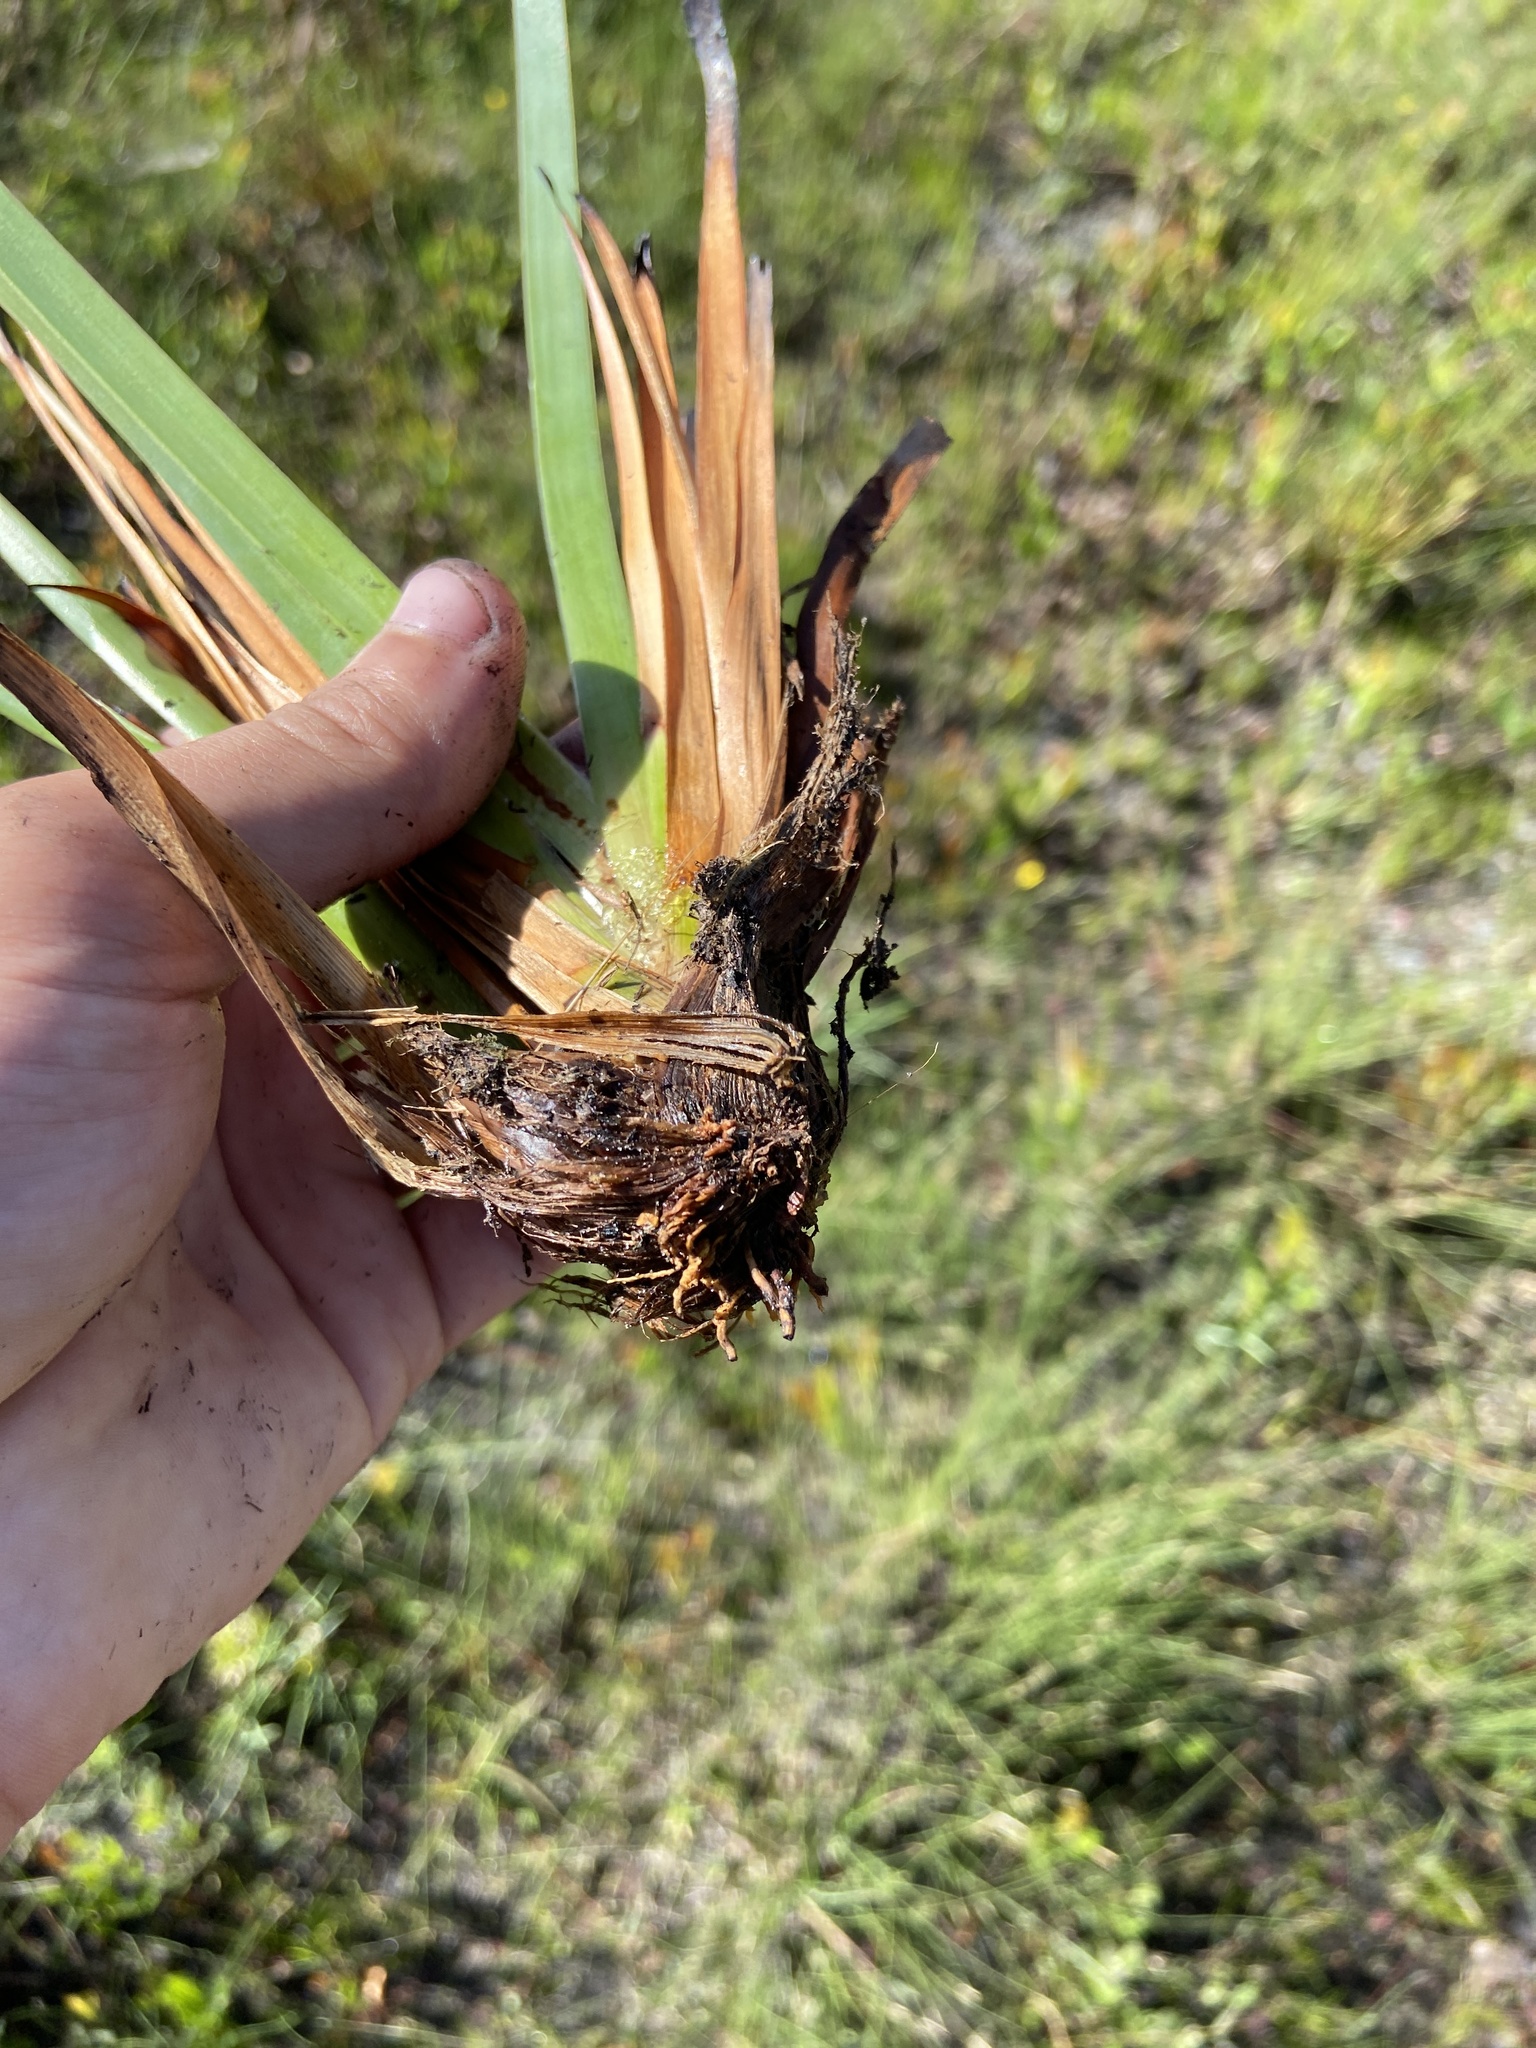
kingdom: Plantae
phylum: Tracheophyta
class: Liliopsida
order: Poales
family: Xyridaceae
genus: Xyris
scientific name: Xyris ambigua
